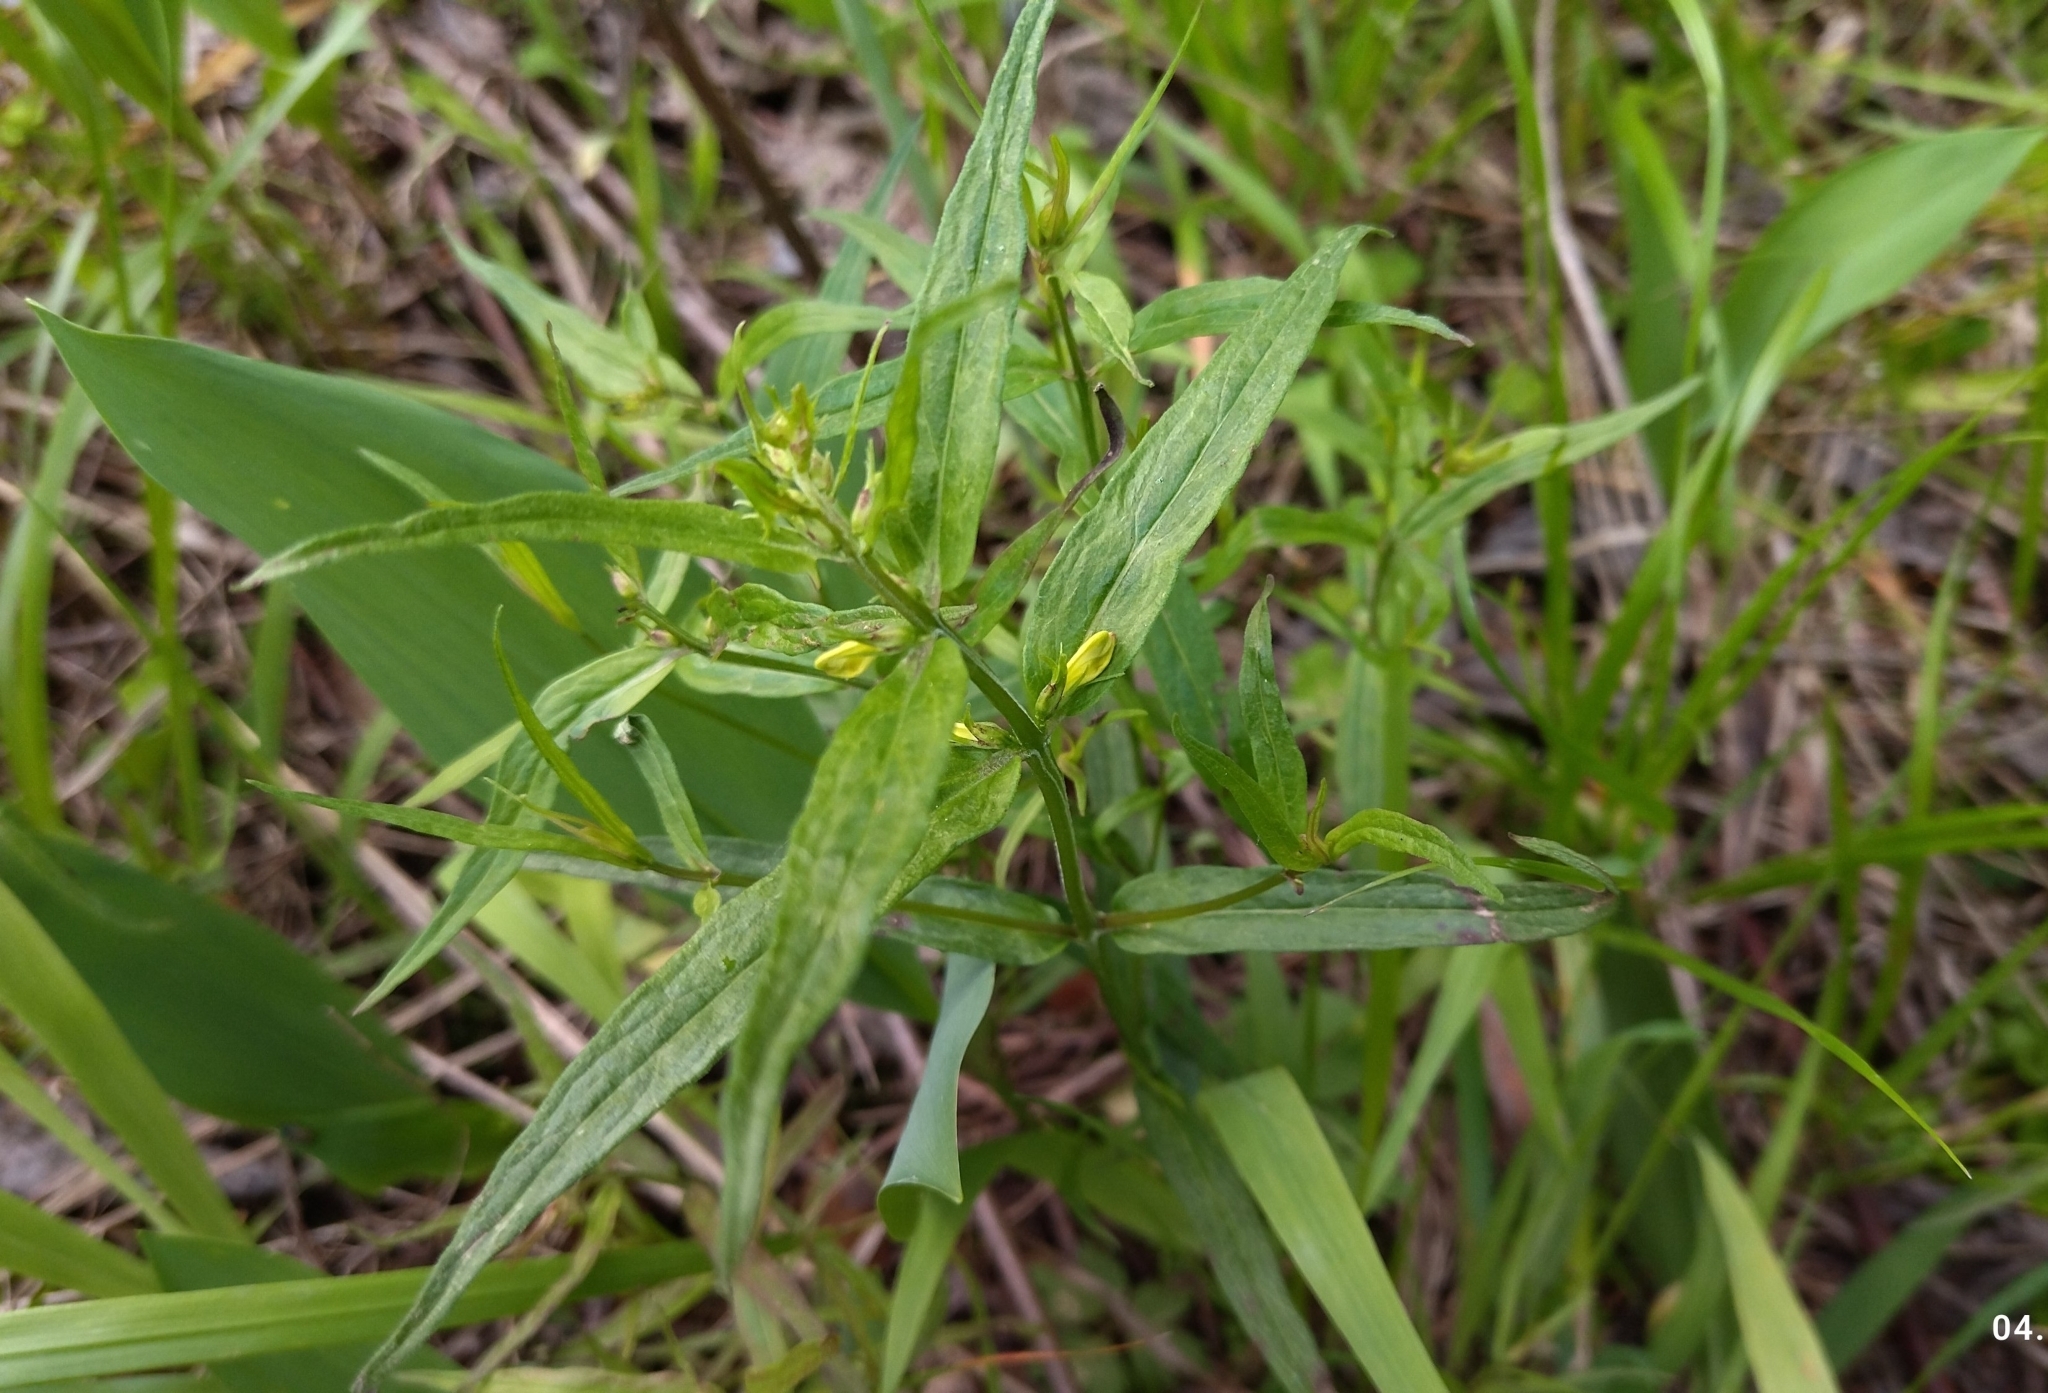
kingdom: Plantae
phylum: Tracheophyta
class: Magnoliopsida
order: Lamiales
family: Orobanchaceae
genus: Melampyrum
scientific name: Melampyrum pratense
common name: Common cow-wheat
